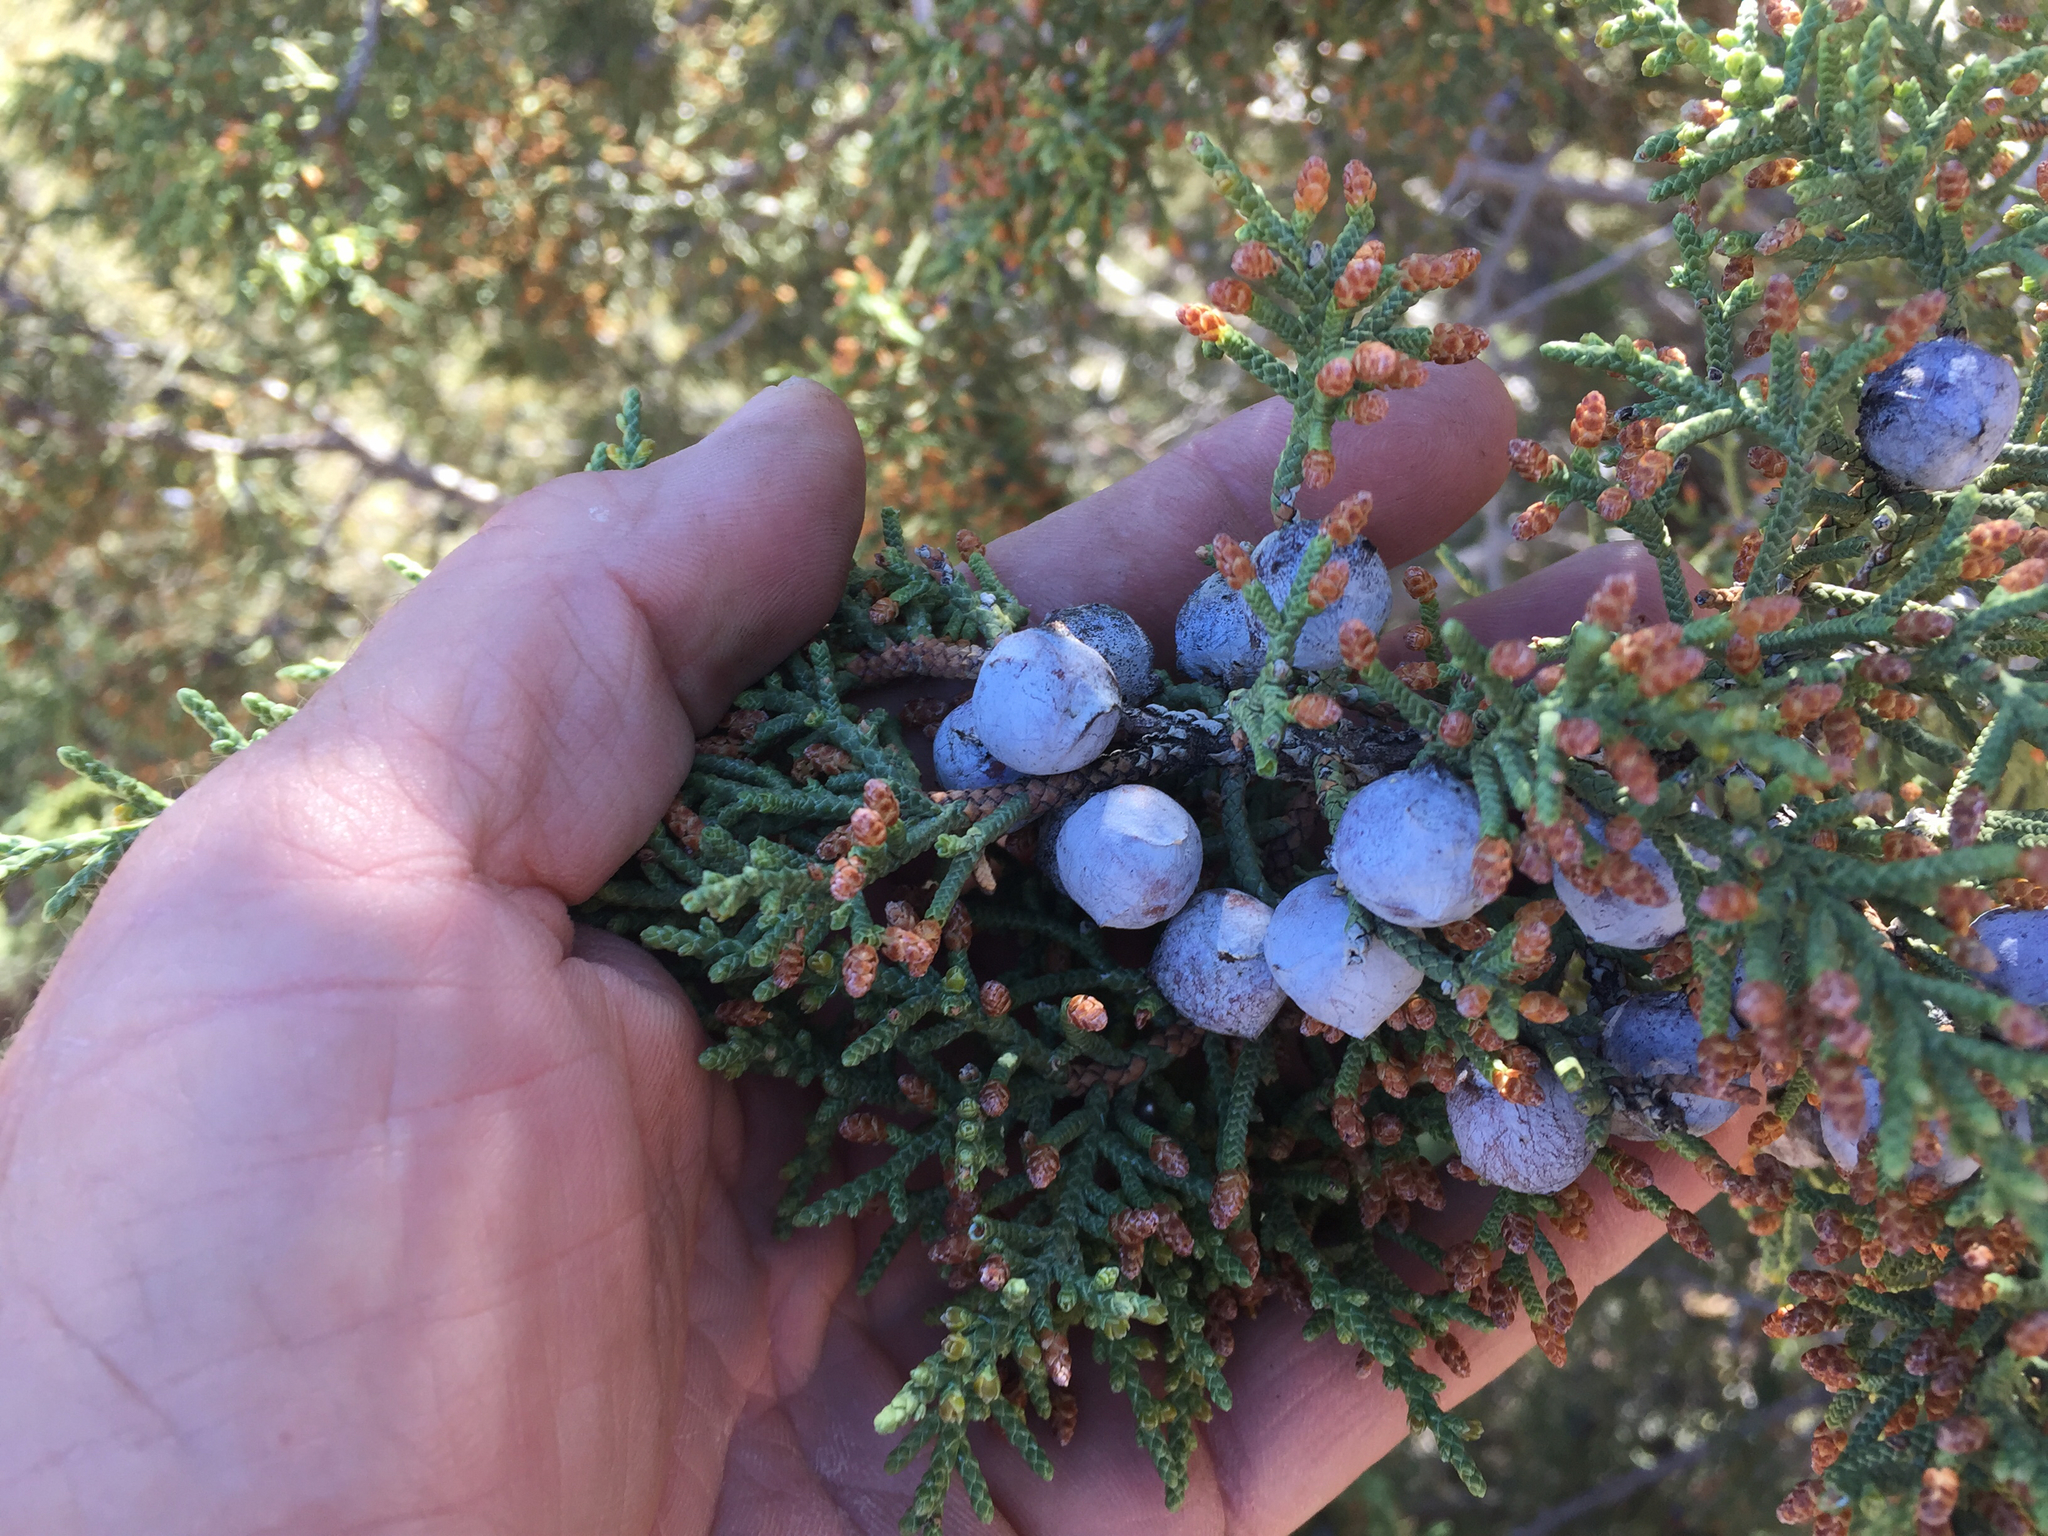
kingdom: Plantae
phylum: Tracheophyta
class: Pinopsida
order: Pinales
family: Cupressaceae
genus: Juniperus
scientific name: Juniperus osteosperma
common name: Utah juniper
